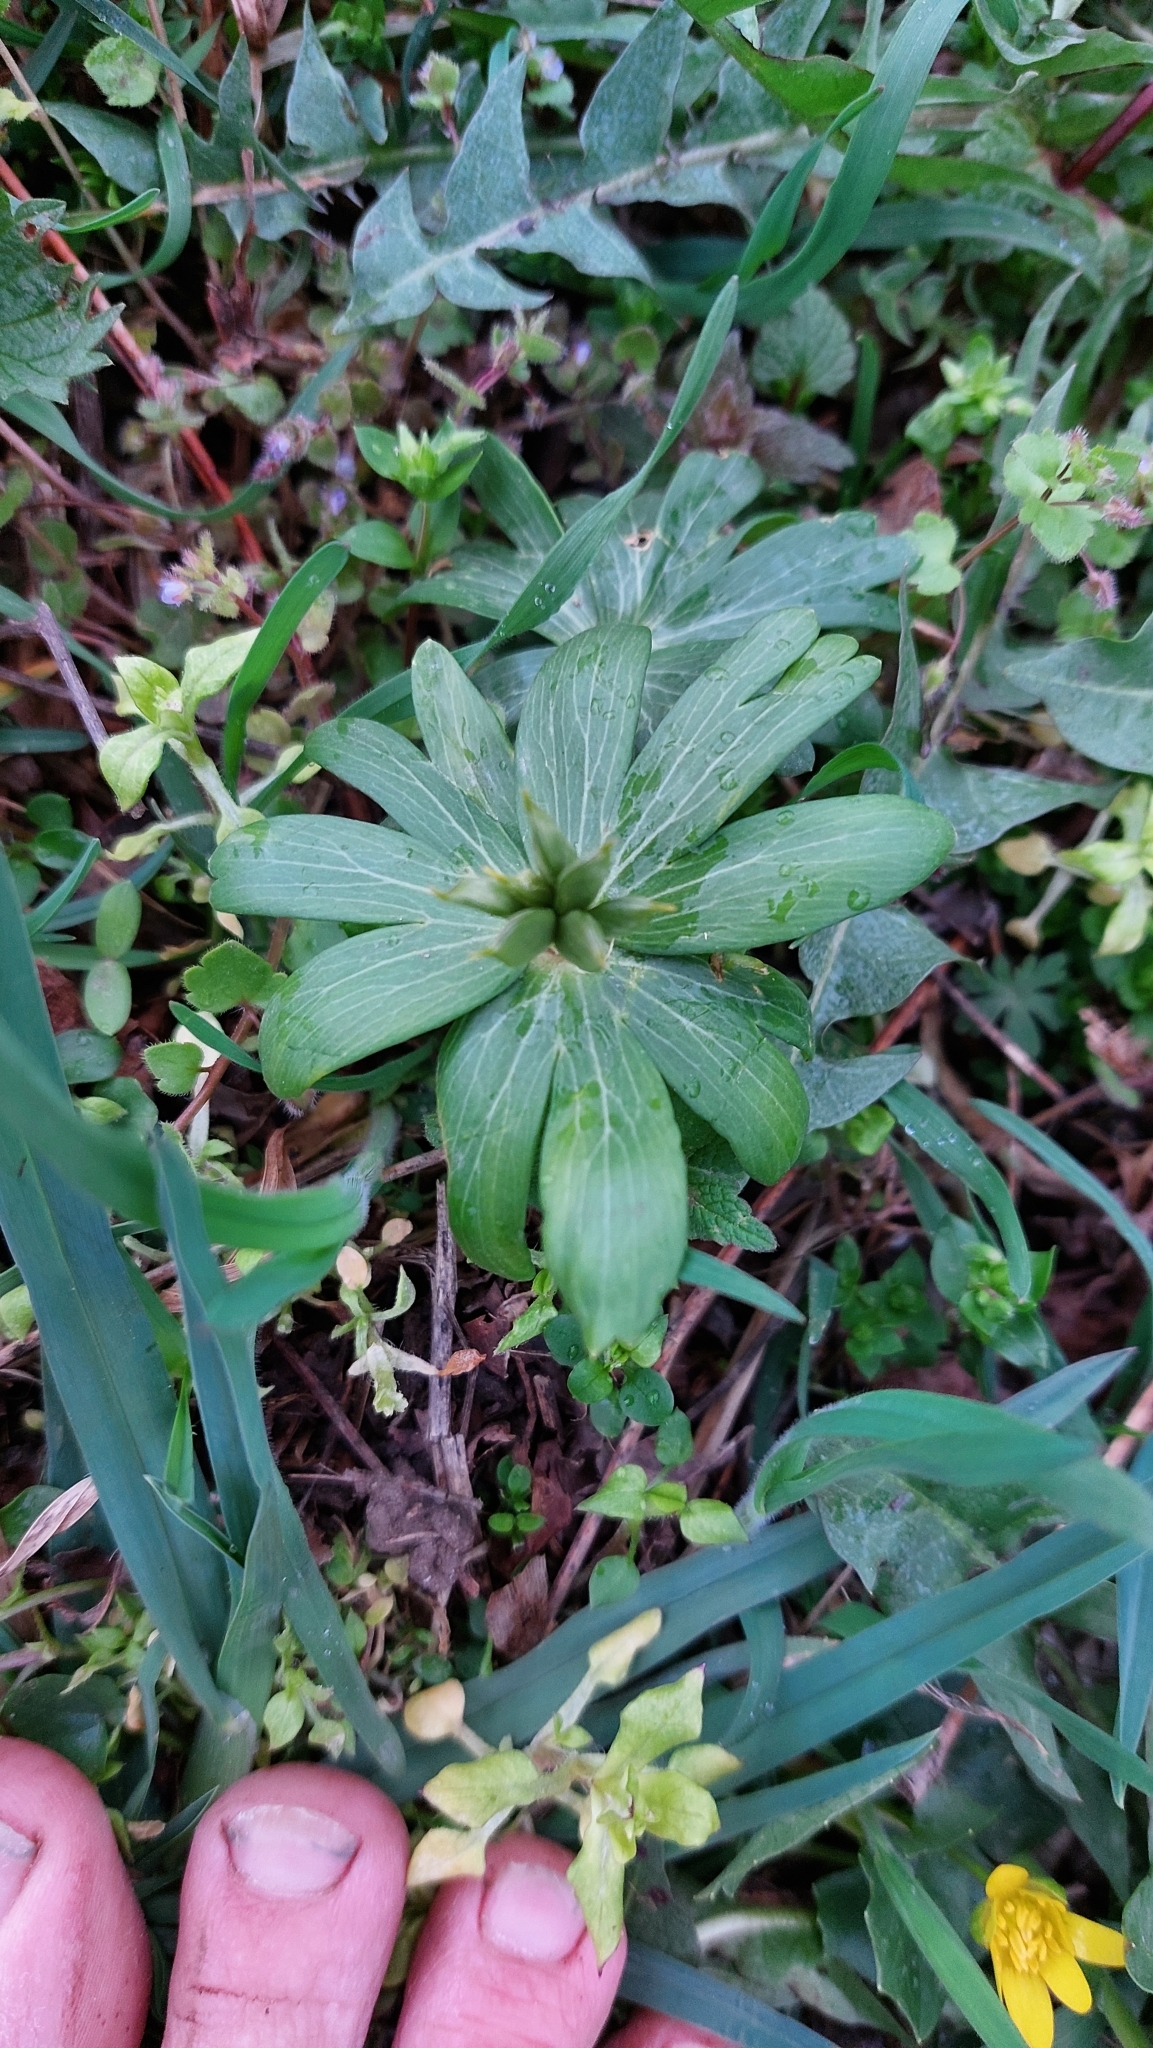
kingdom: Plantae
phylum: Tracheophyta
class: Magnoliopsida
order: Ranunculales
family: Ranunculaceae
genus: Eranthis
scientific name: Eranthis hyemalis
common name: Winter aconite
